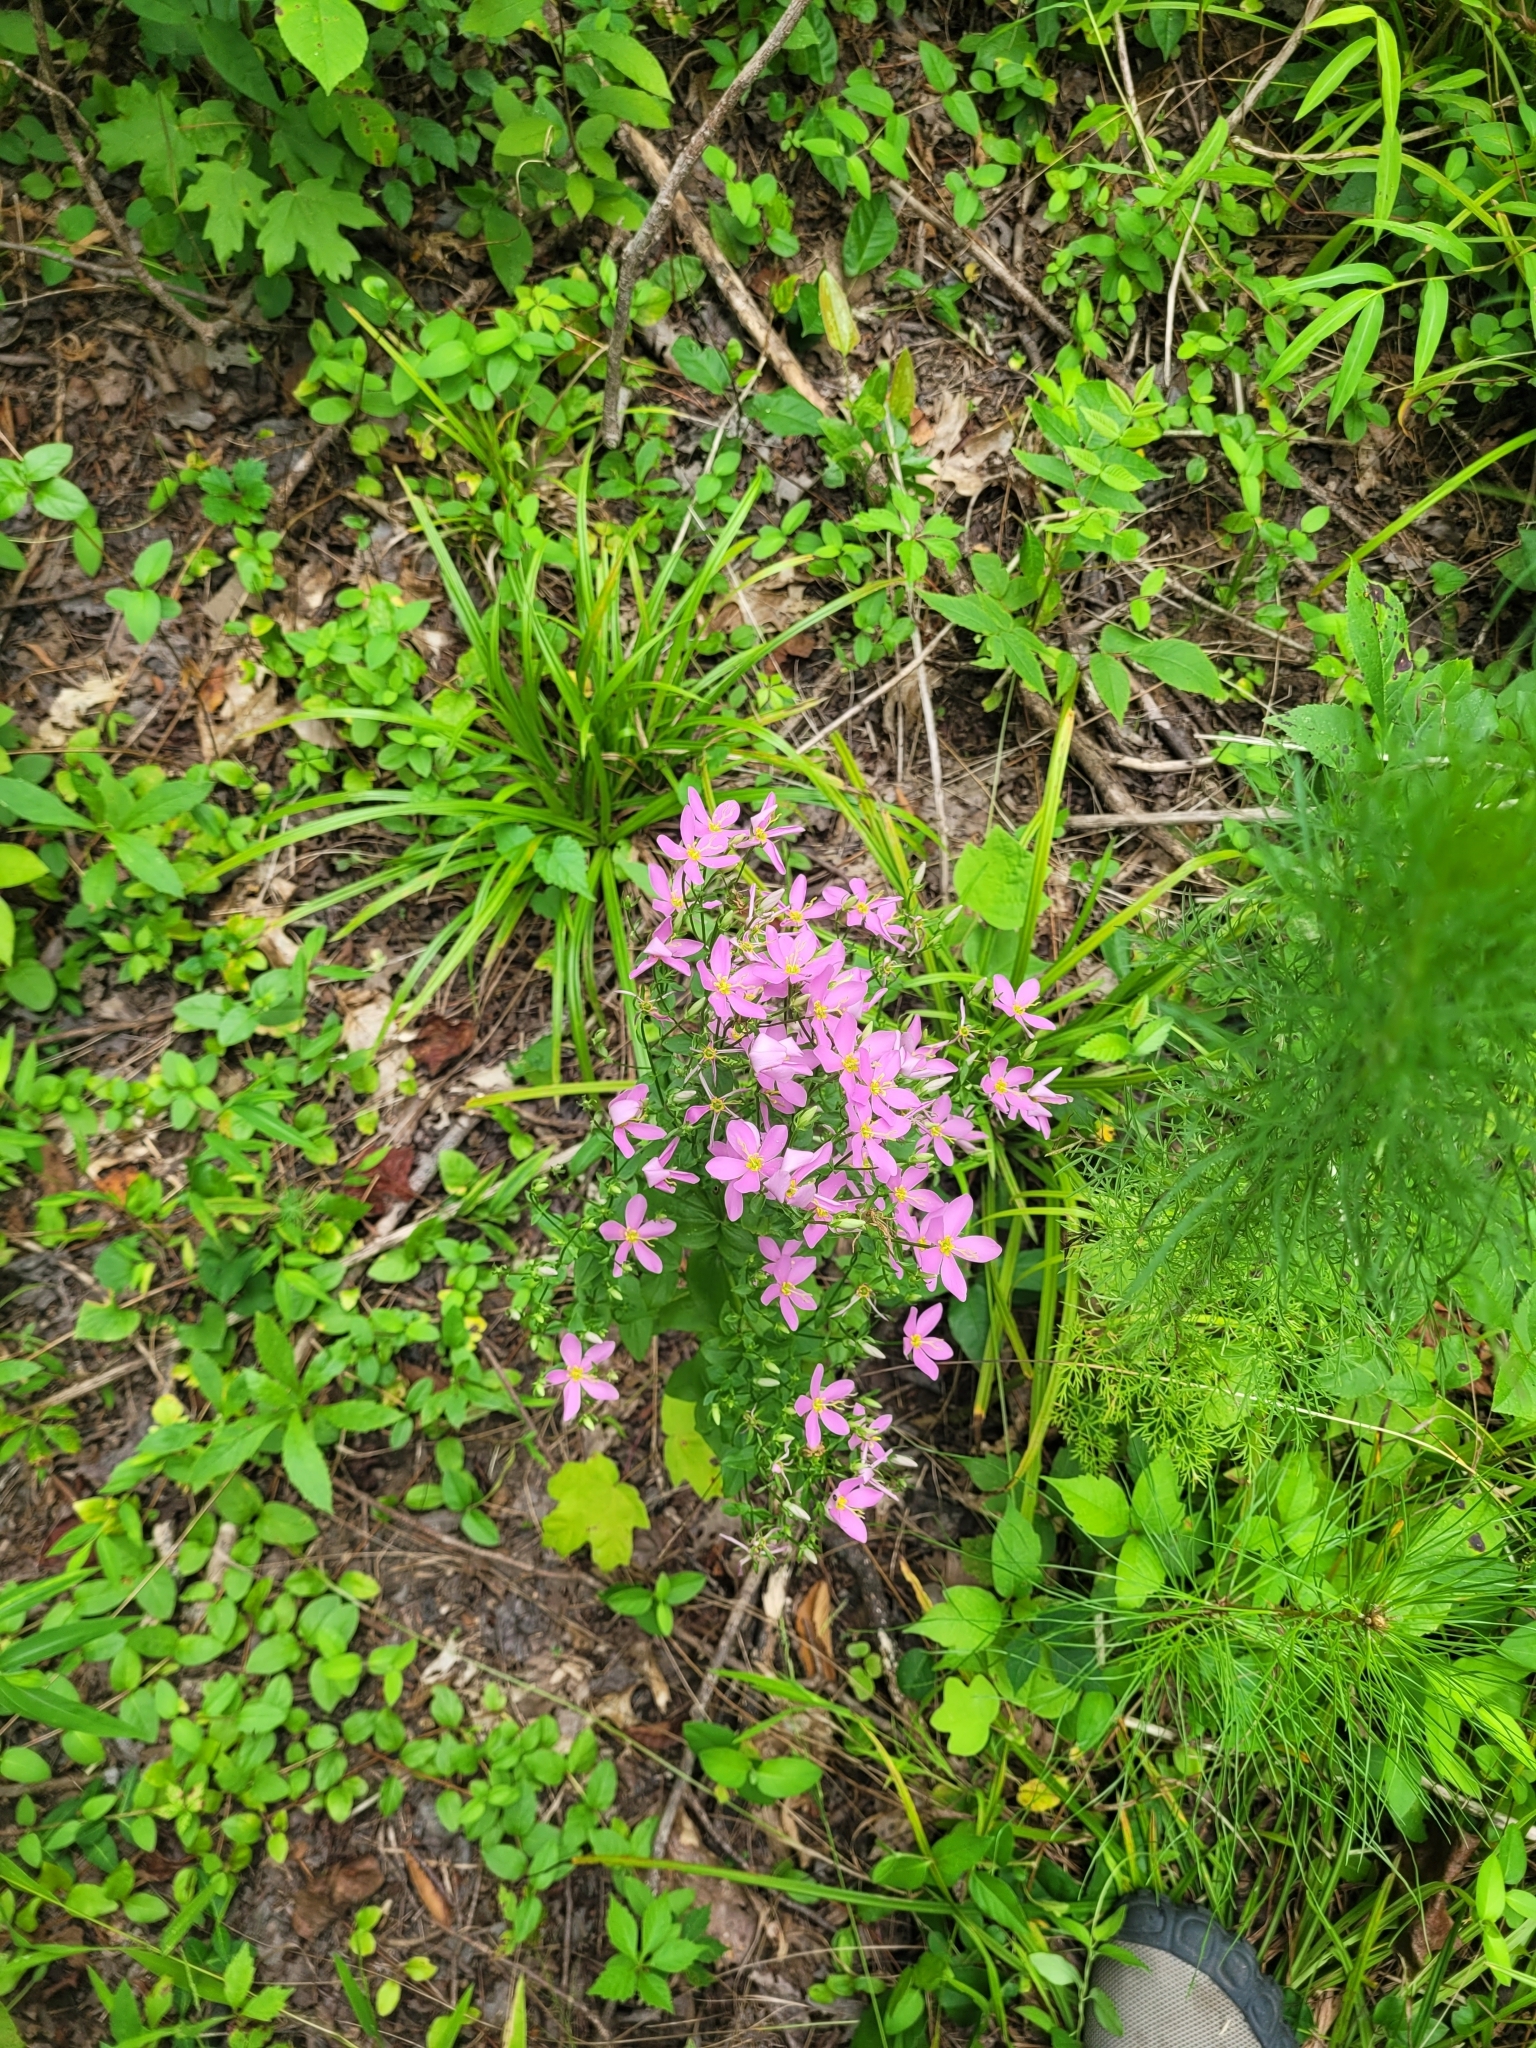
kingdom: Plantae
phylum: Tracheophyta
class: Magnoliopsida
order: Gentianales
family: Gentianaceae
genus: Sabatia
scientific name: Sabatia angularis
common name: Rose-pink
